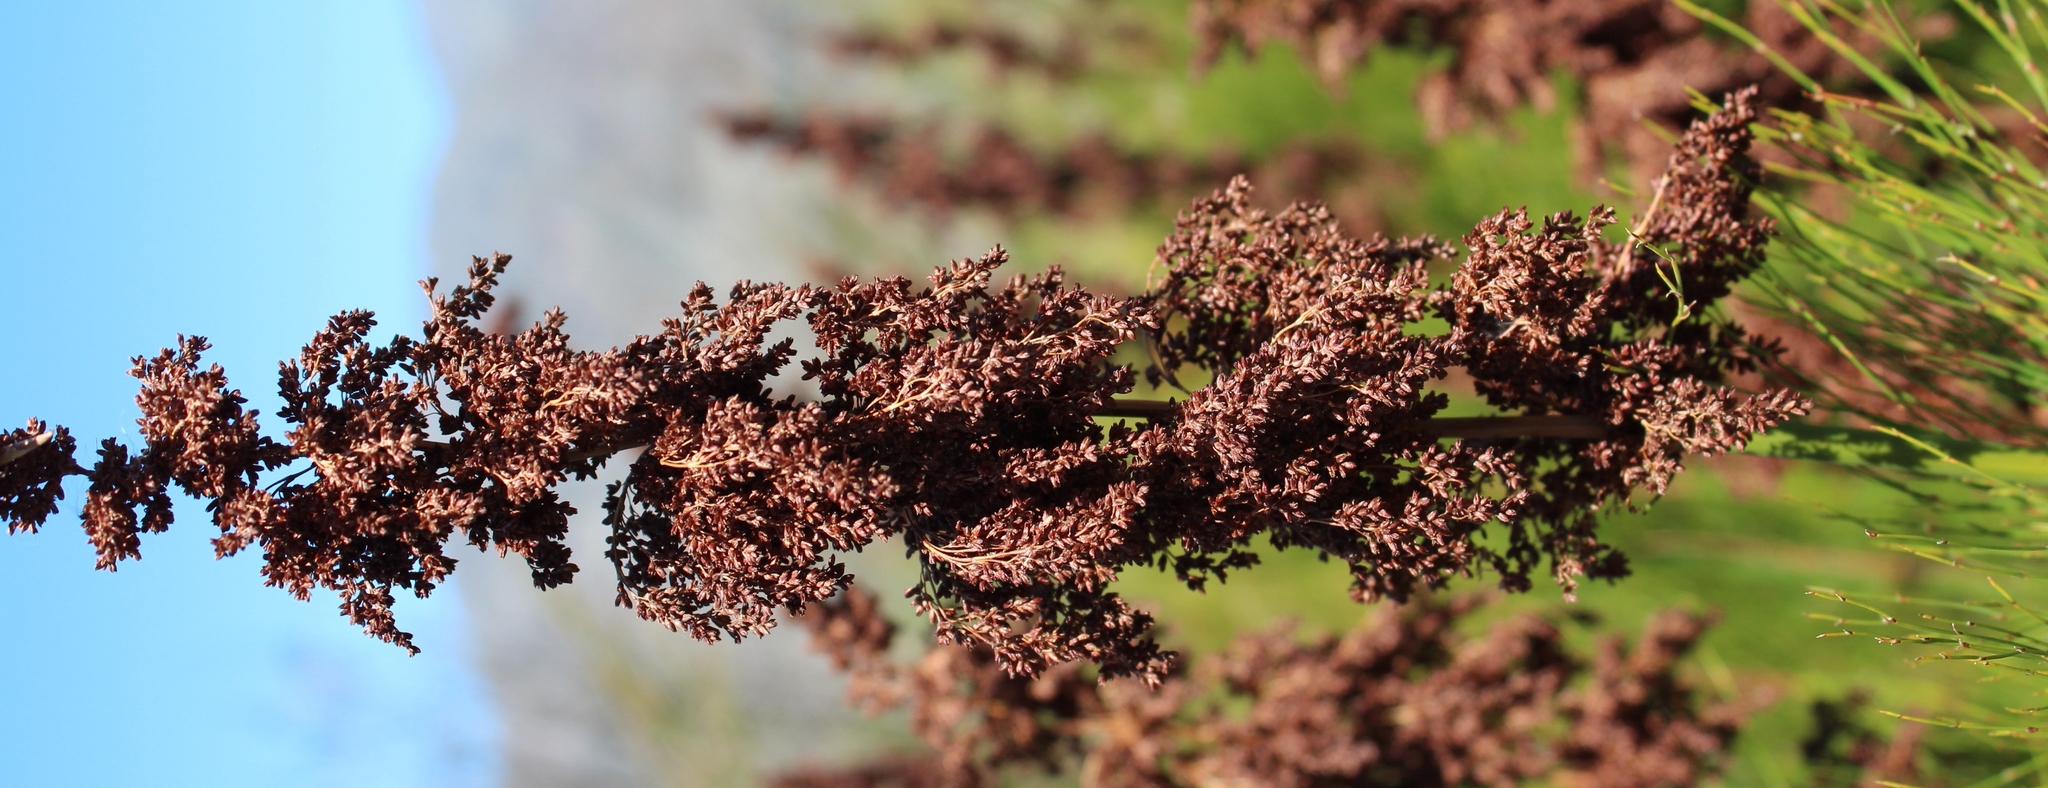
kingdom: Plantae
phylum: Tracheophyta
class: Liliopsida
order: Poales
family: Restionaceae
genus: Elegia
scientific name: Elegia capensis
